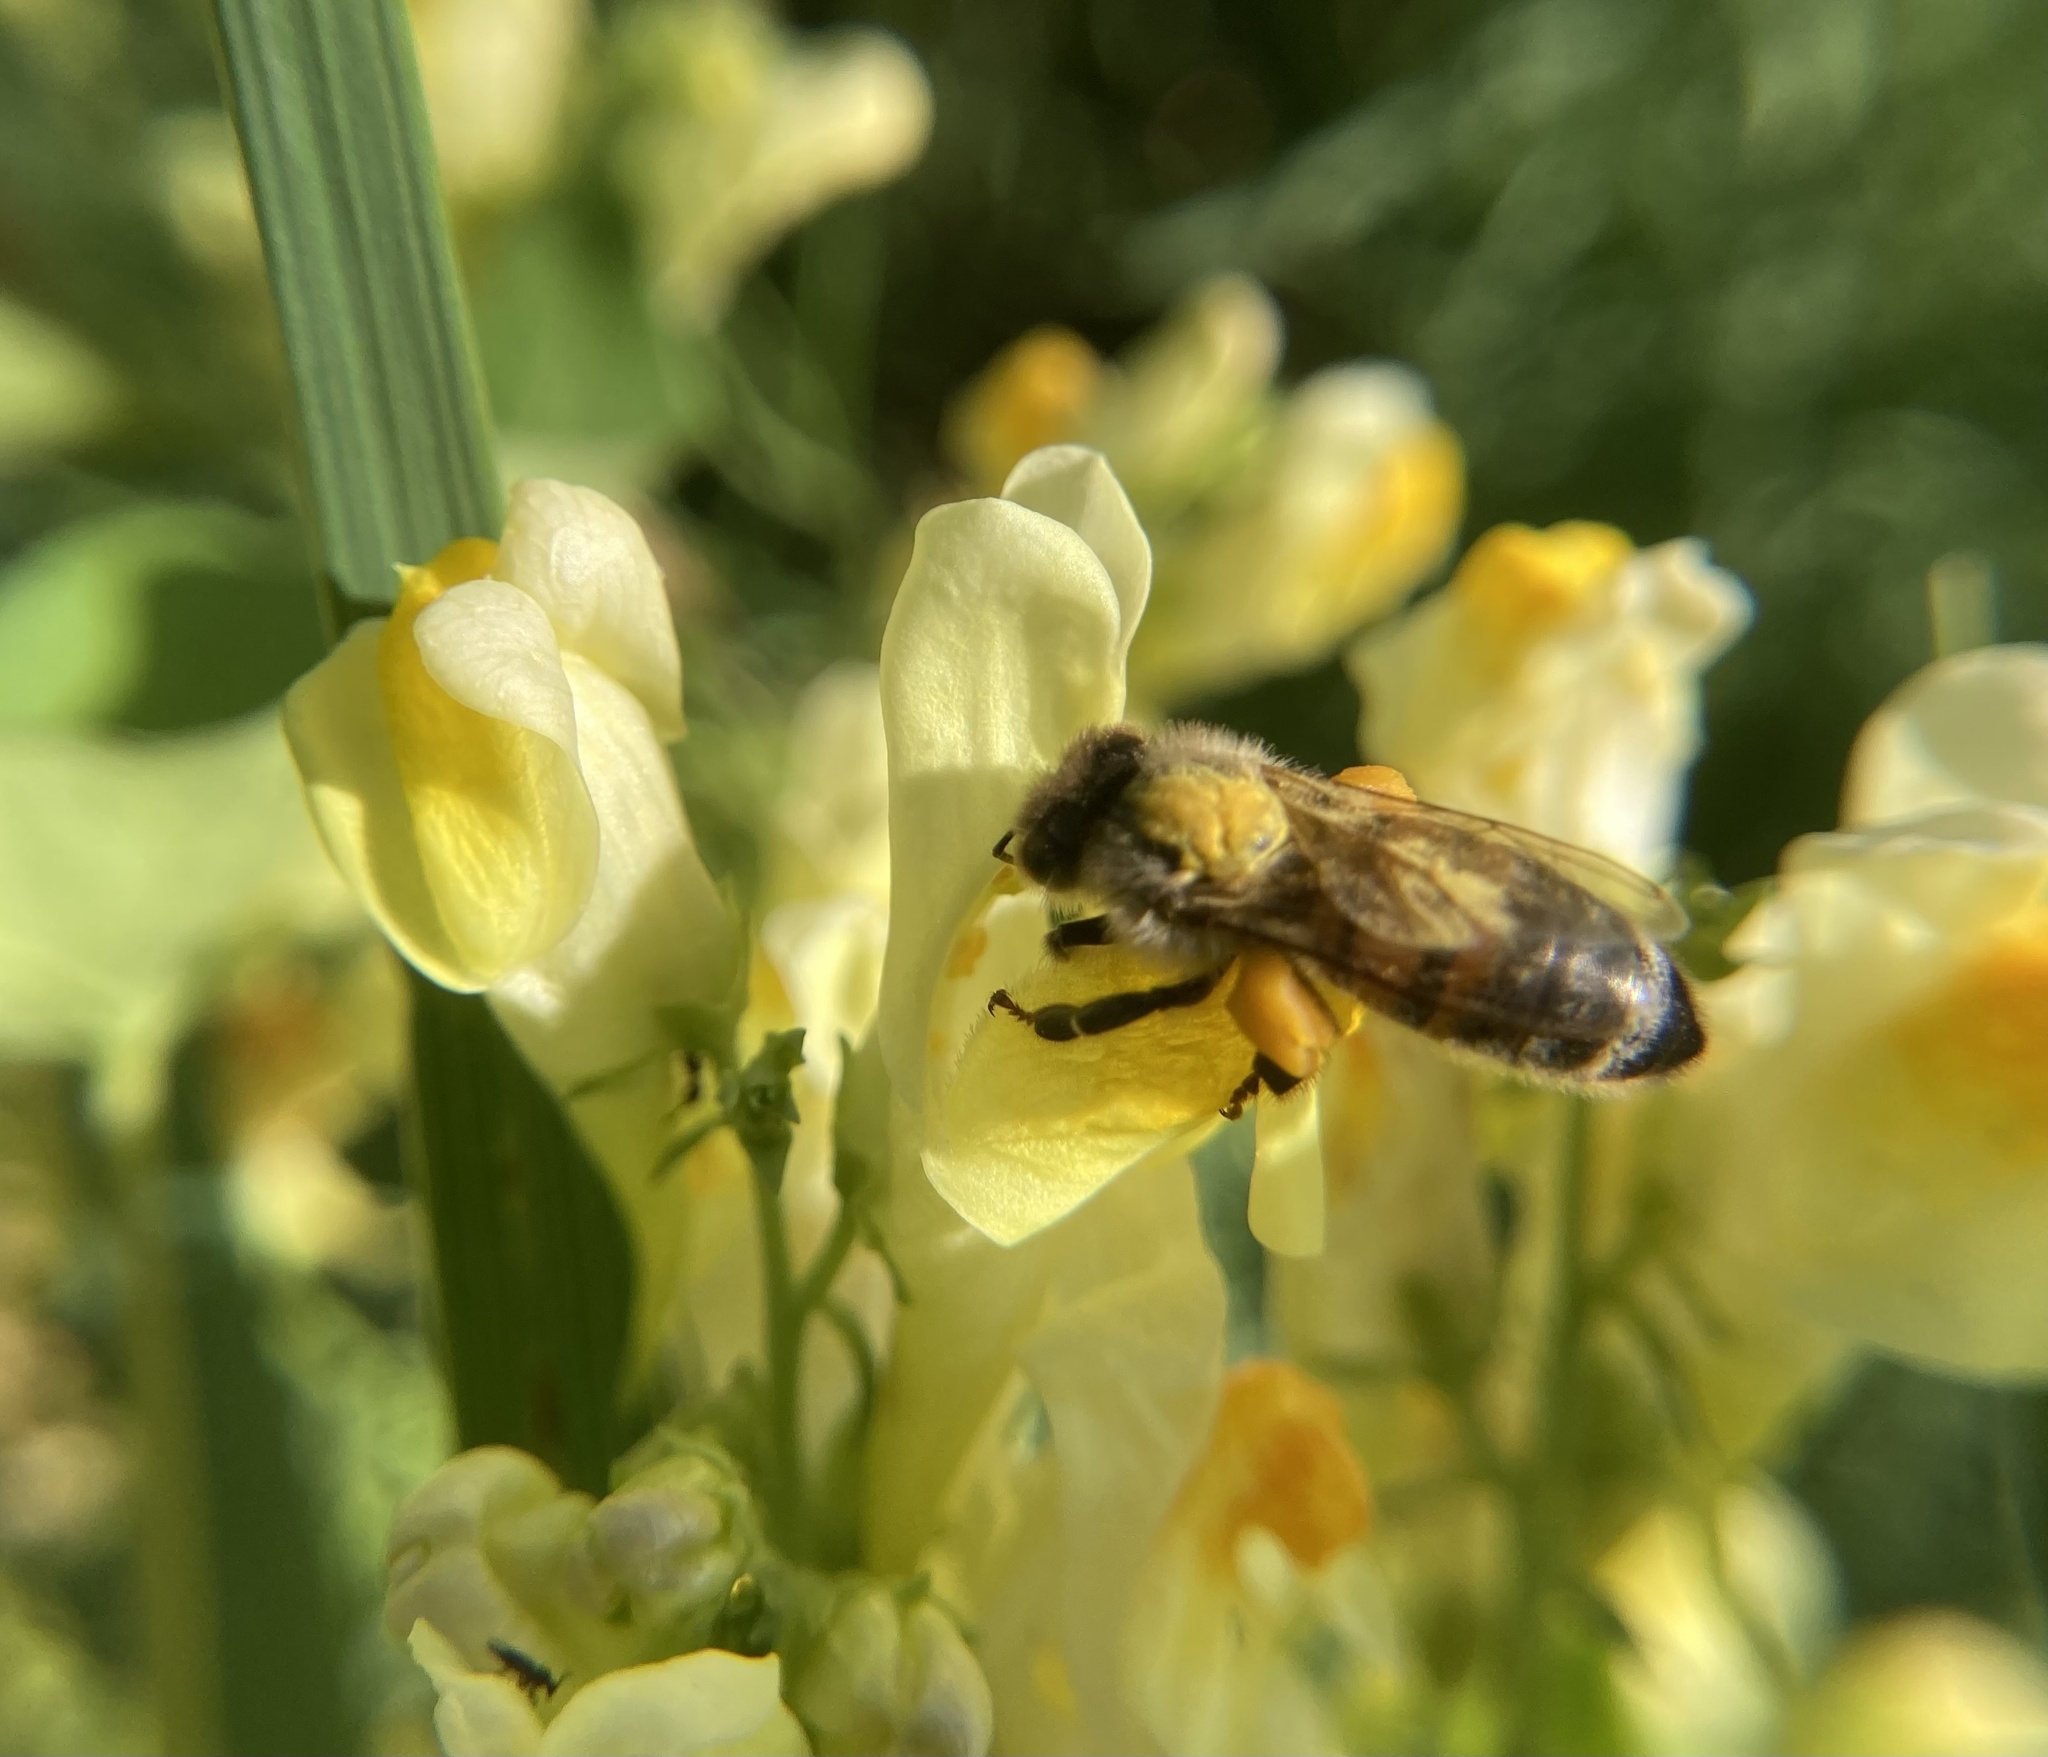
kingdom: Animalia
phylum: Arthropoda
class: Insecta
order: Hymenoptera
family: Apidae
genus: Apis
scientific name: Apis mellifera
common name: Honey bee
